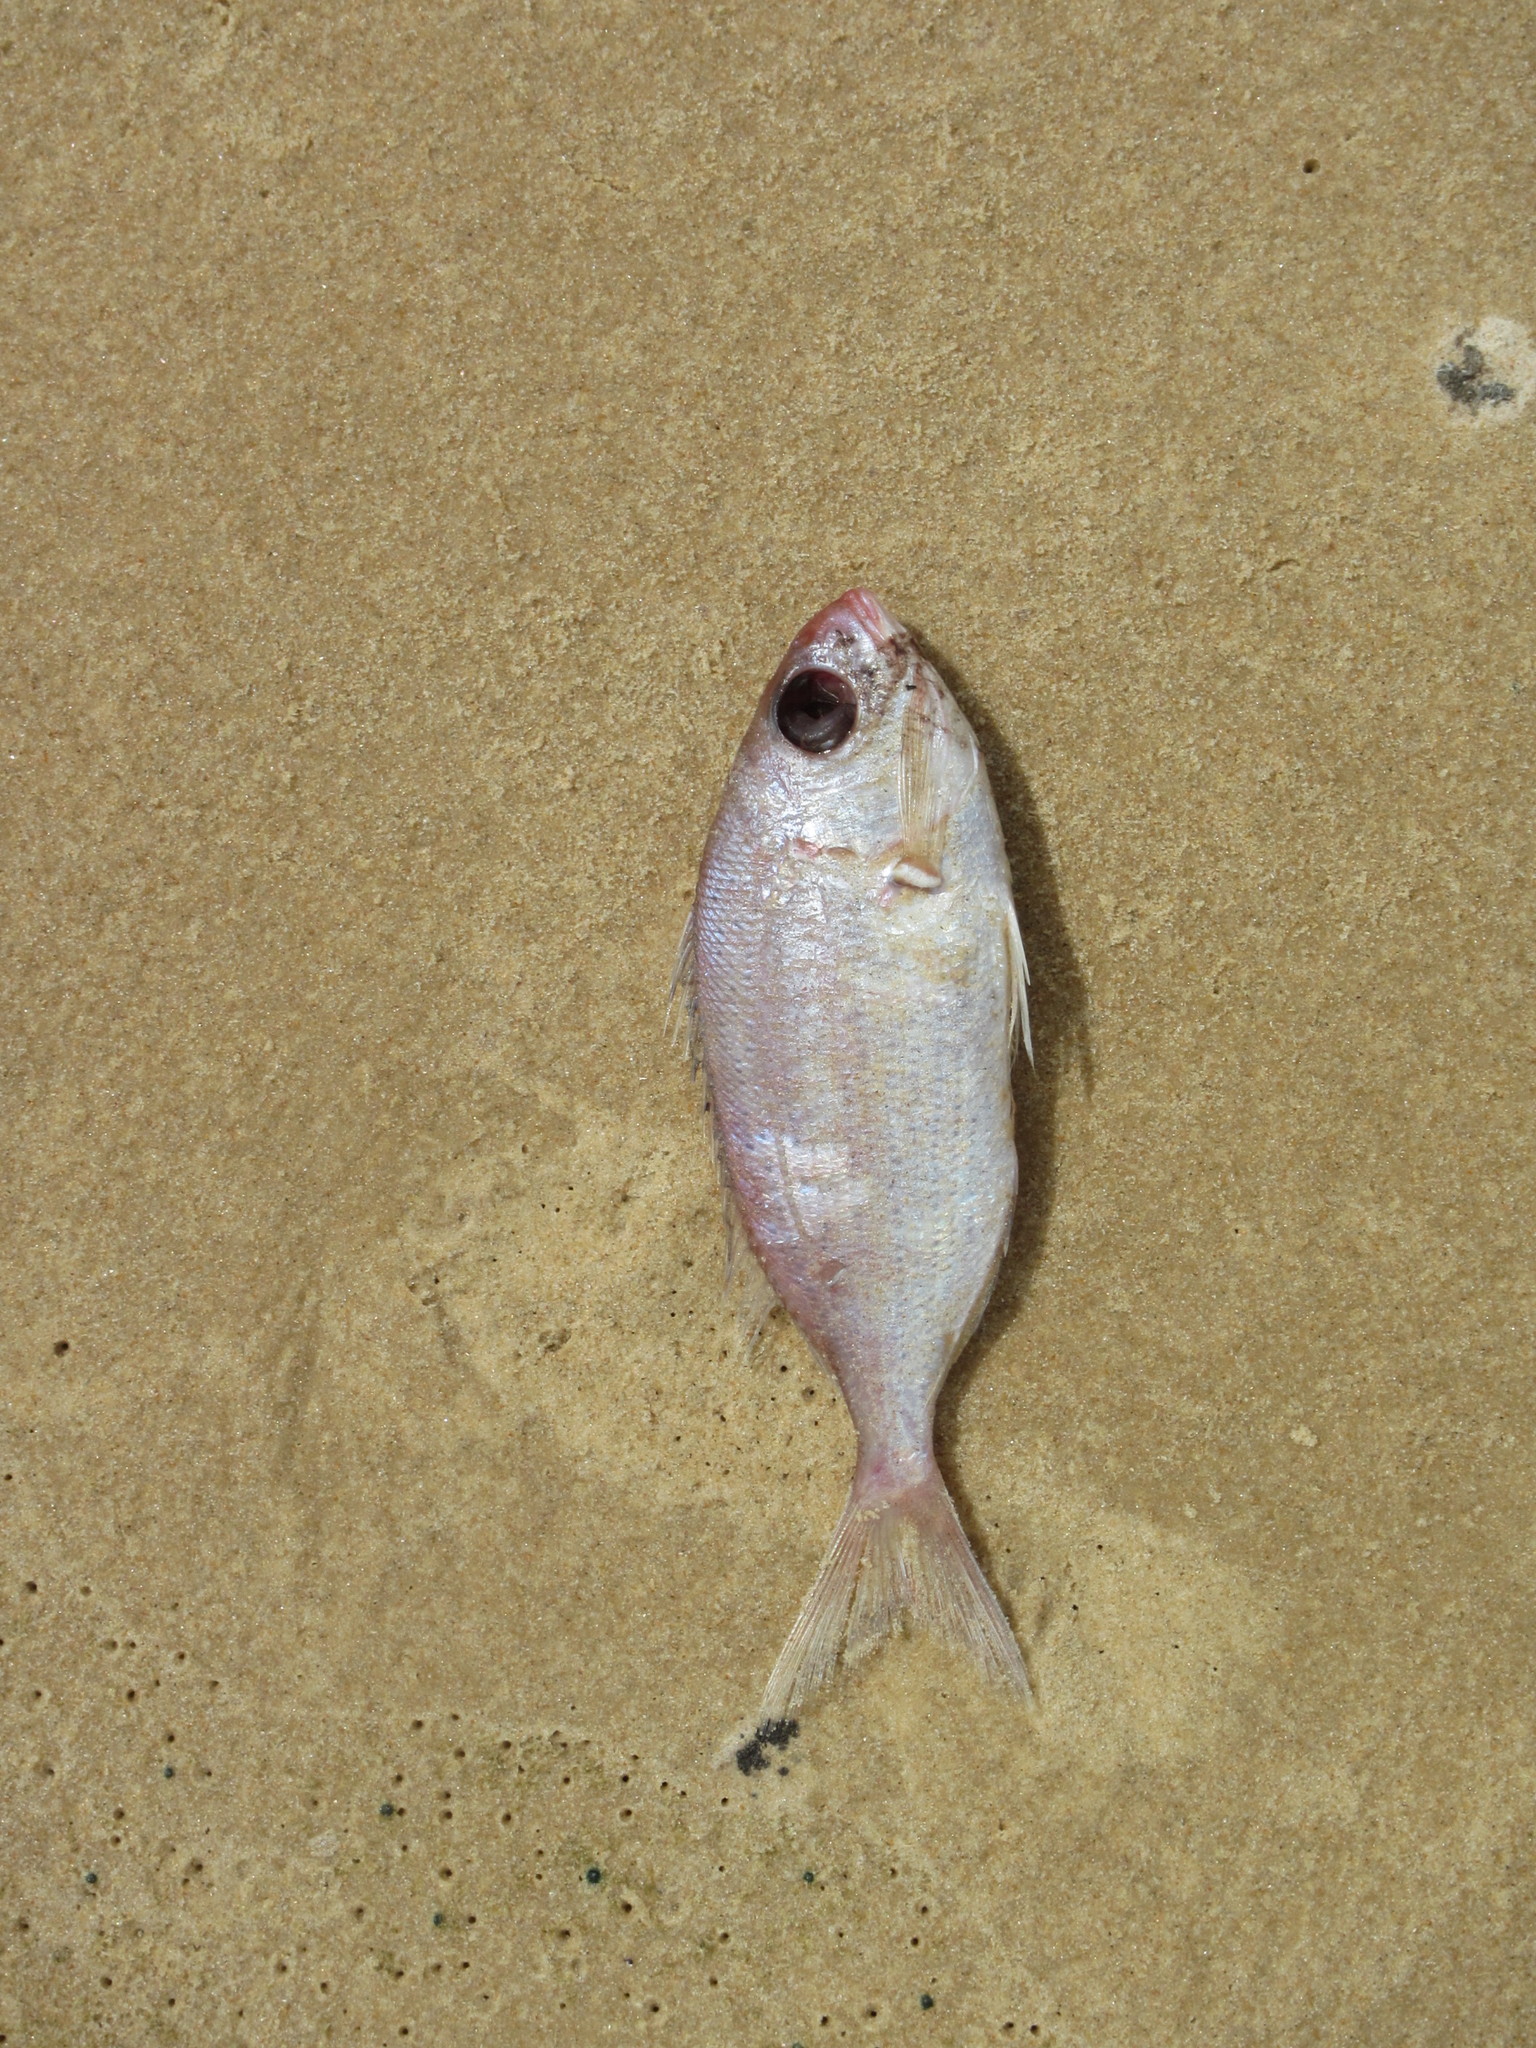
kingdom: Animalia
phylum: Chordata
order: Perciformes
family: Sparidae
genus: Pagellus
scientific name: Pagellus bellottii
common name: Red pandora
